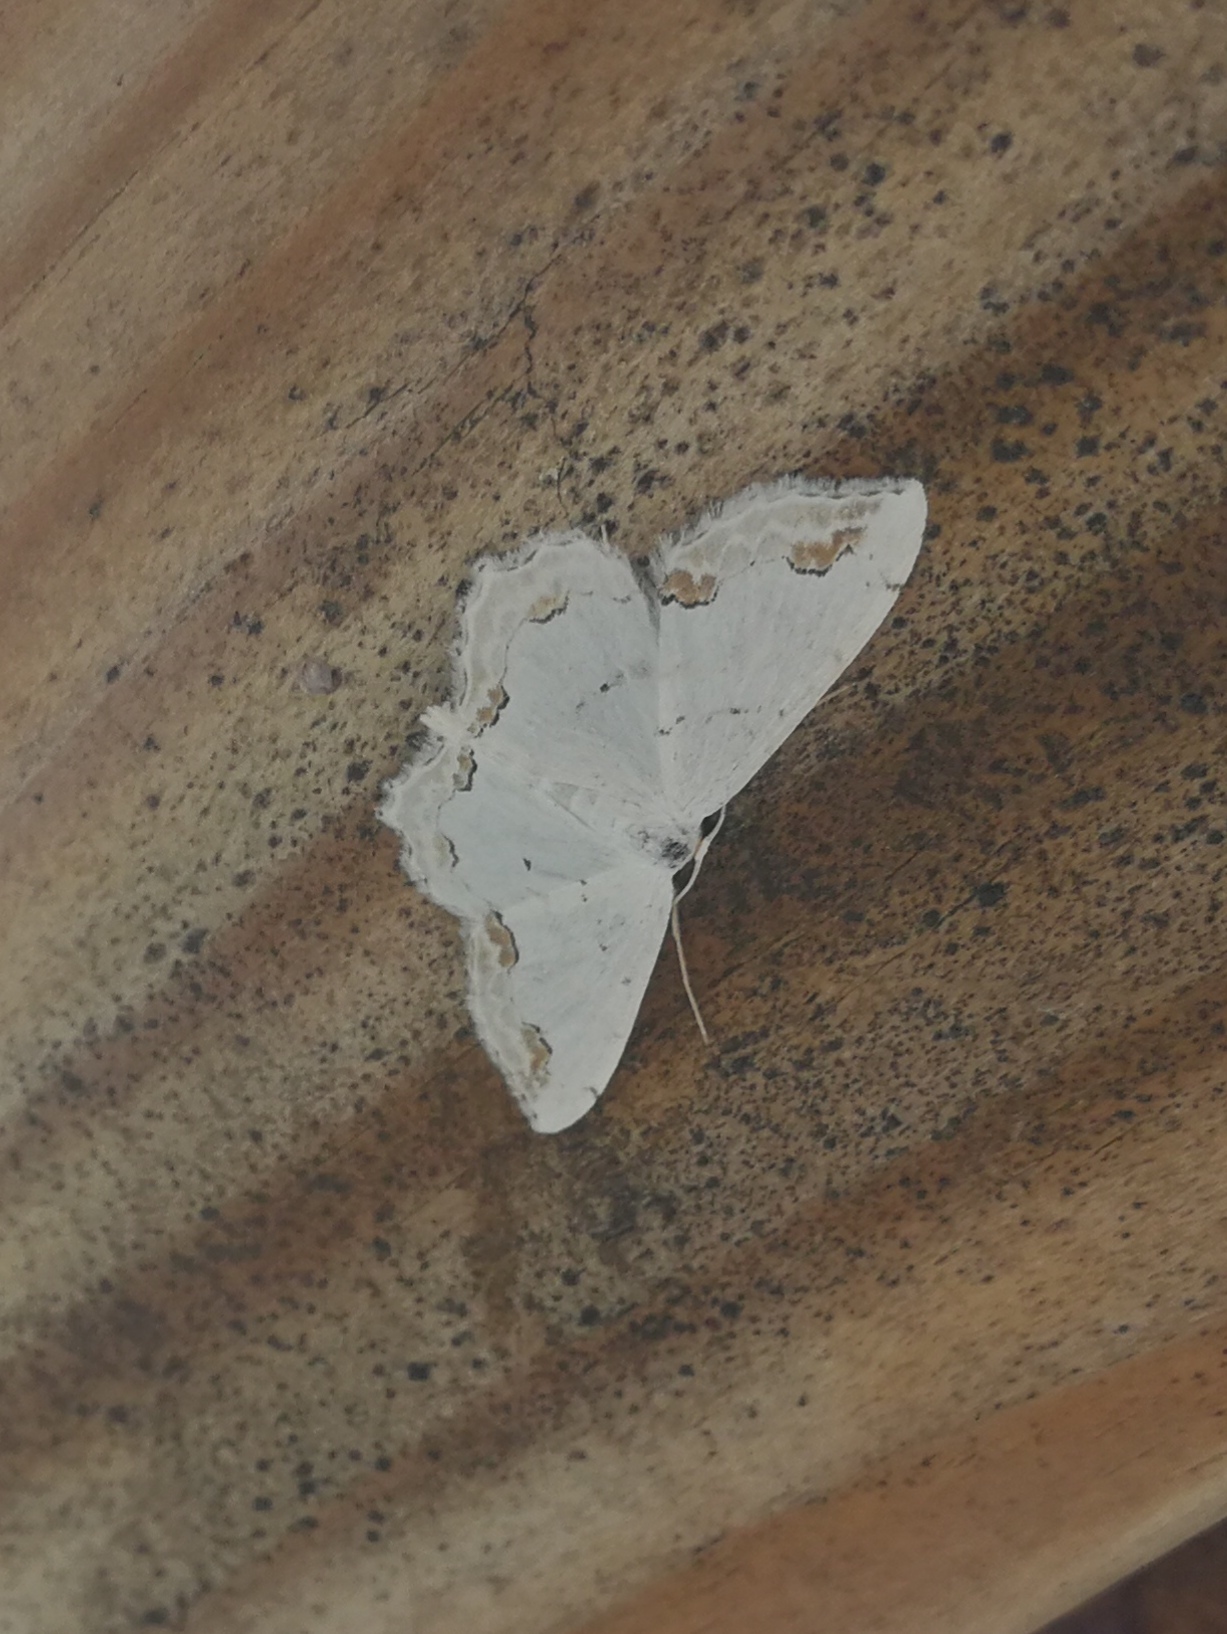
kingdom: Animalia
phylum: Arthropoda
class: Insecta
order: Lepidoptera
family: Geometridae
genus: Scopula
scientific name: Scopula ornata
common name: Lace border
